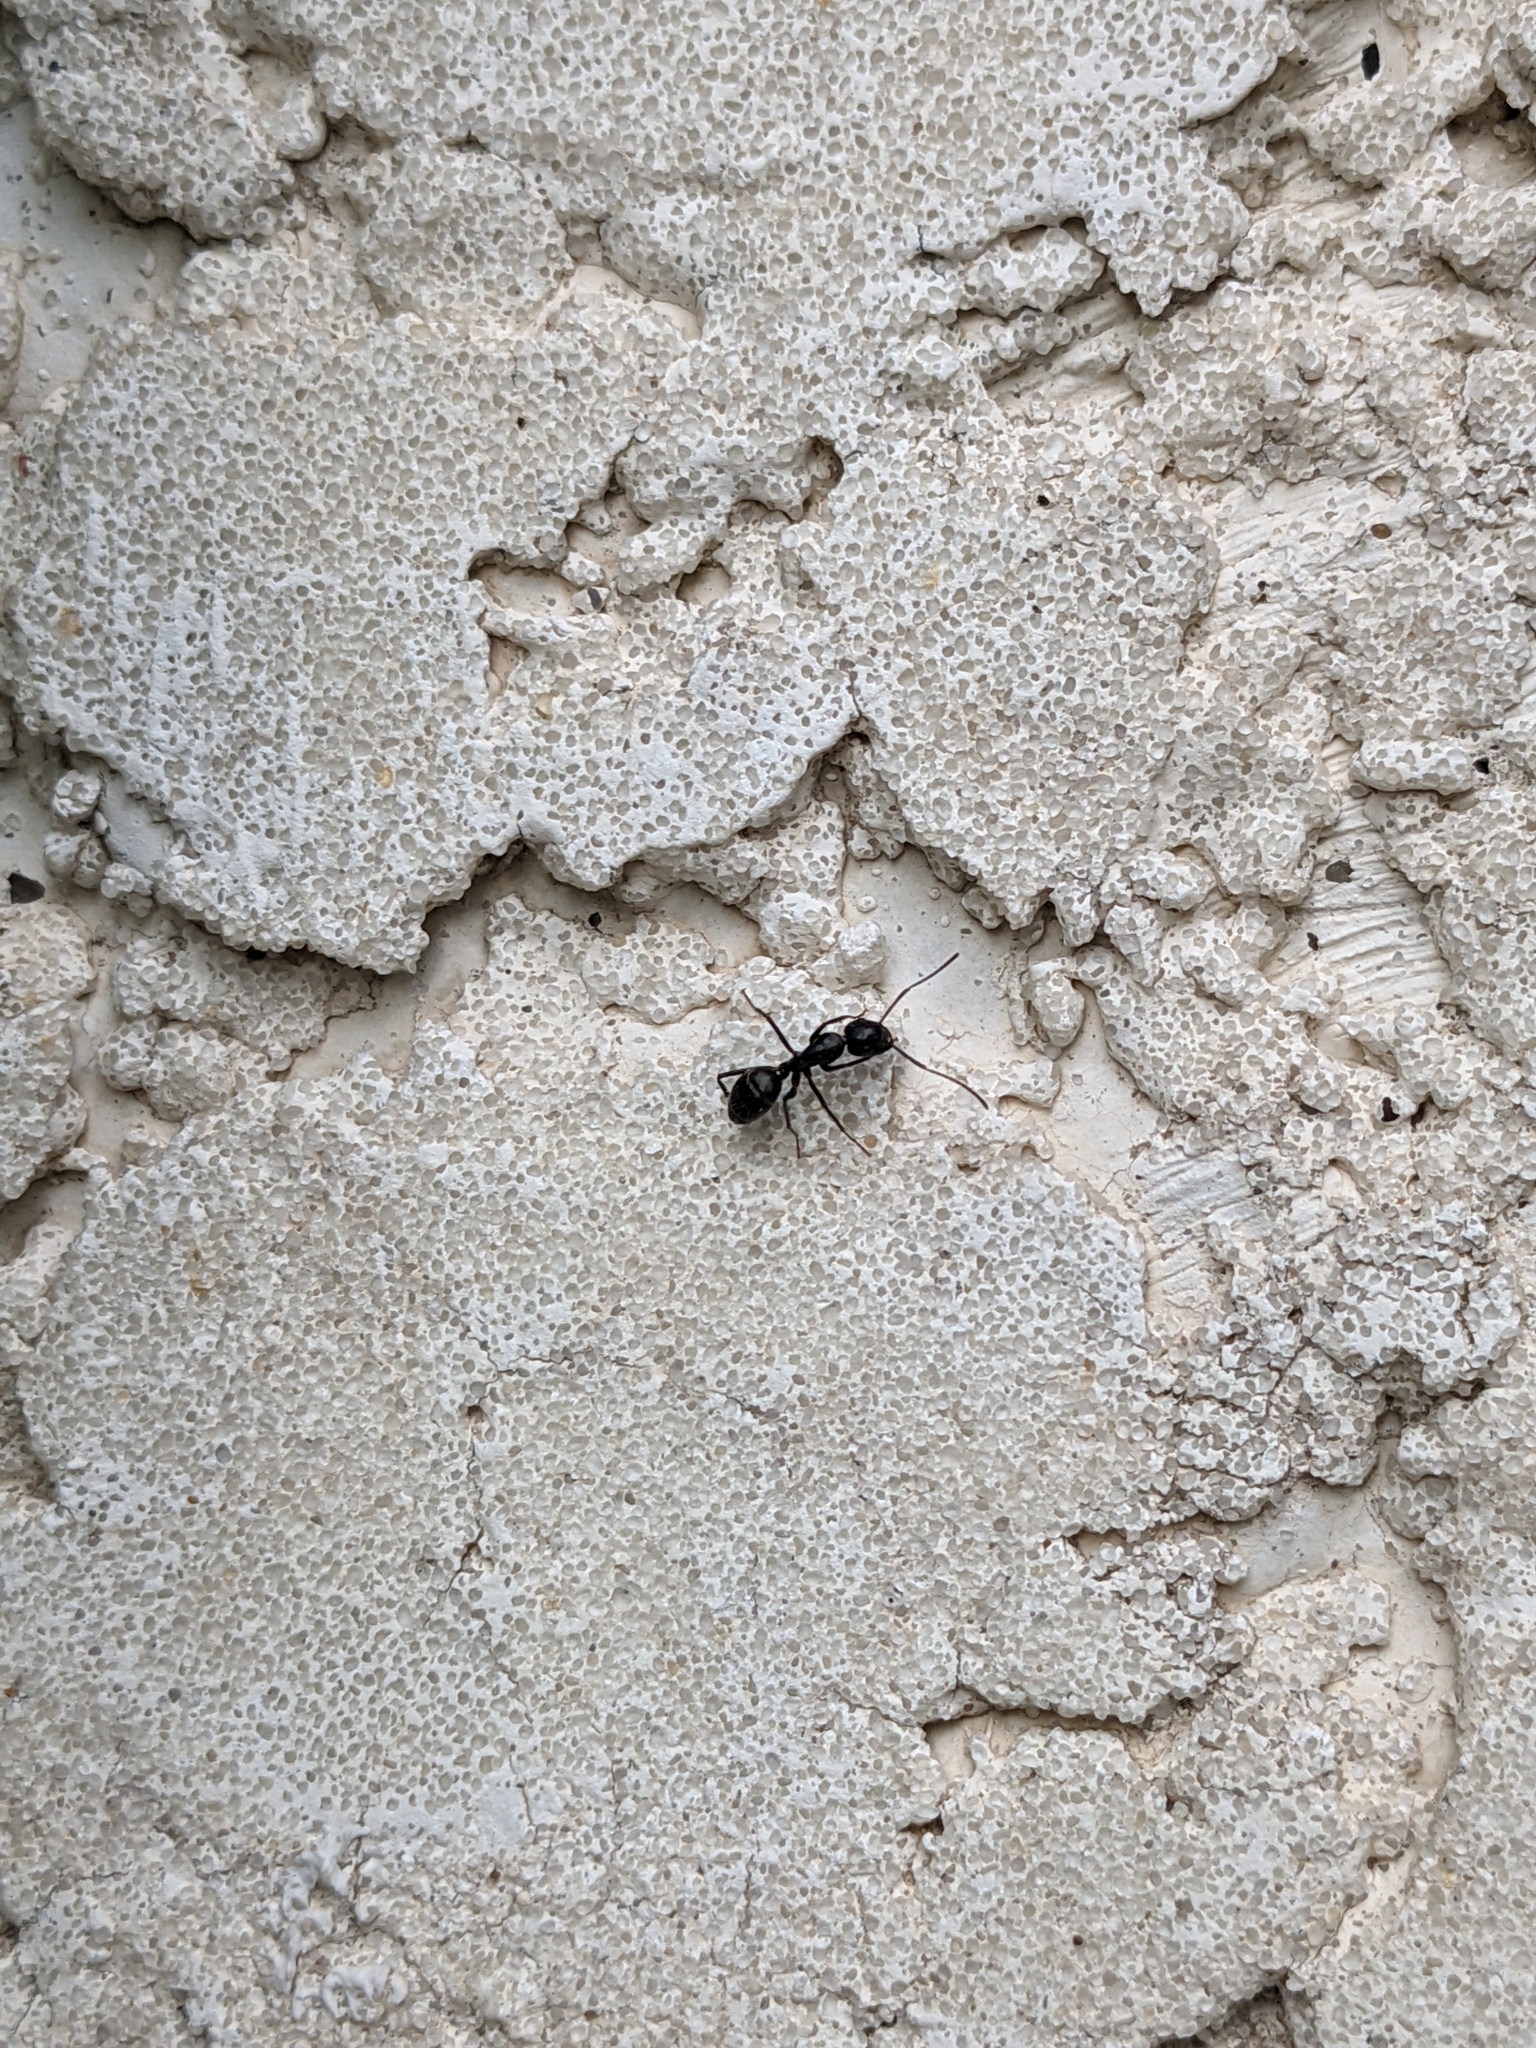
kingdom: Animalia
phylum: Arthropoda
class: Insecta
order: Hymenoptera
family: Formicidae
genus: Myrmentoma
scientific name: Myrmentoma
